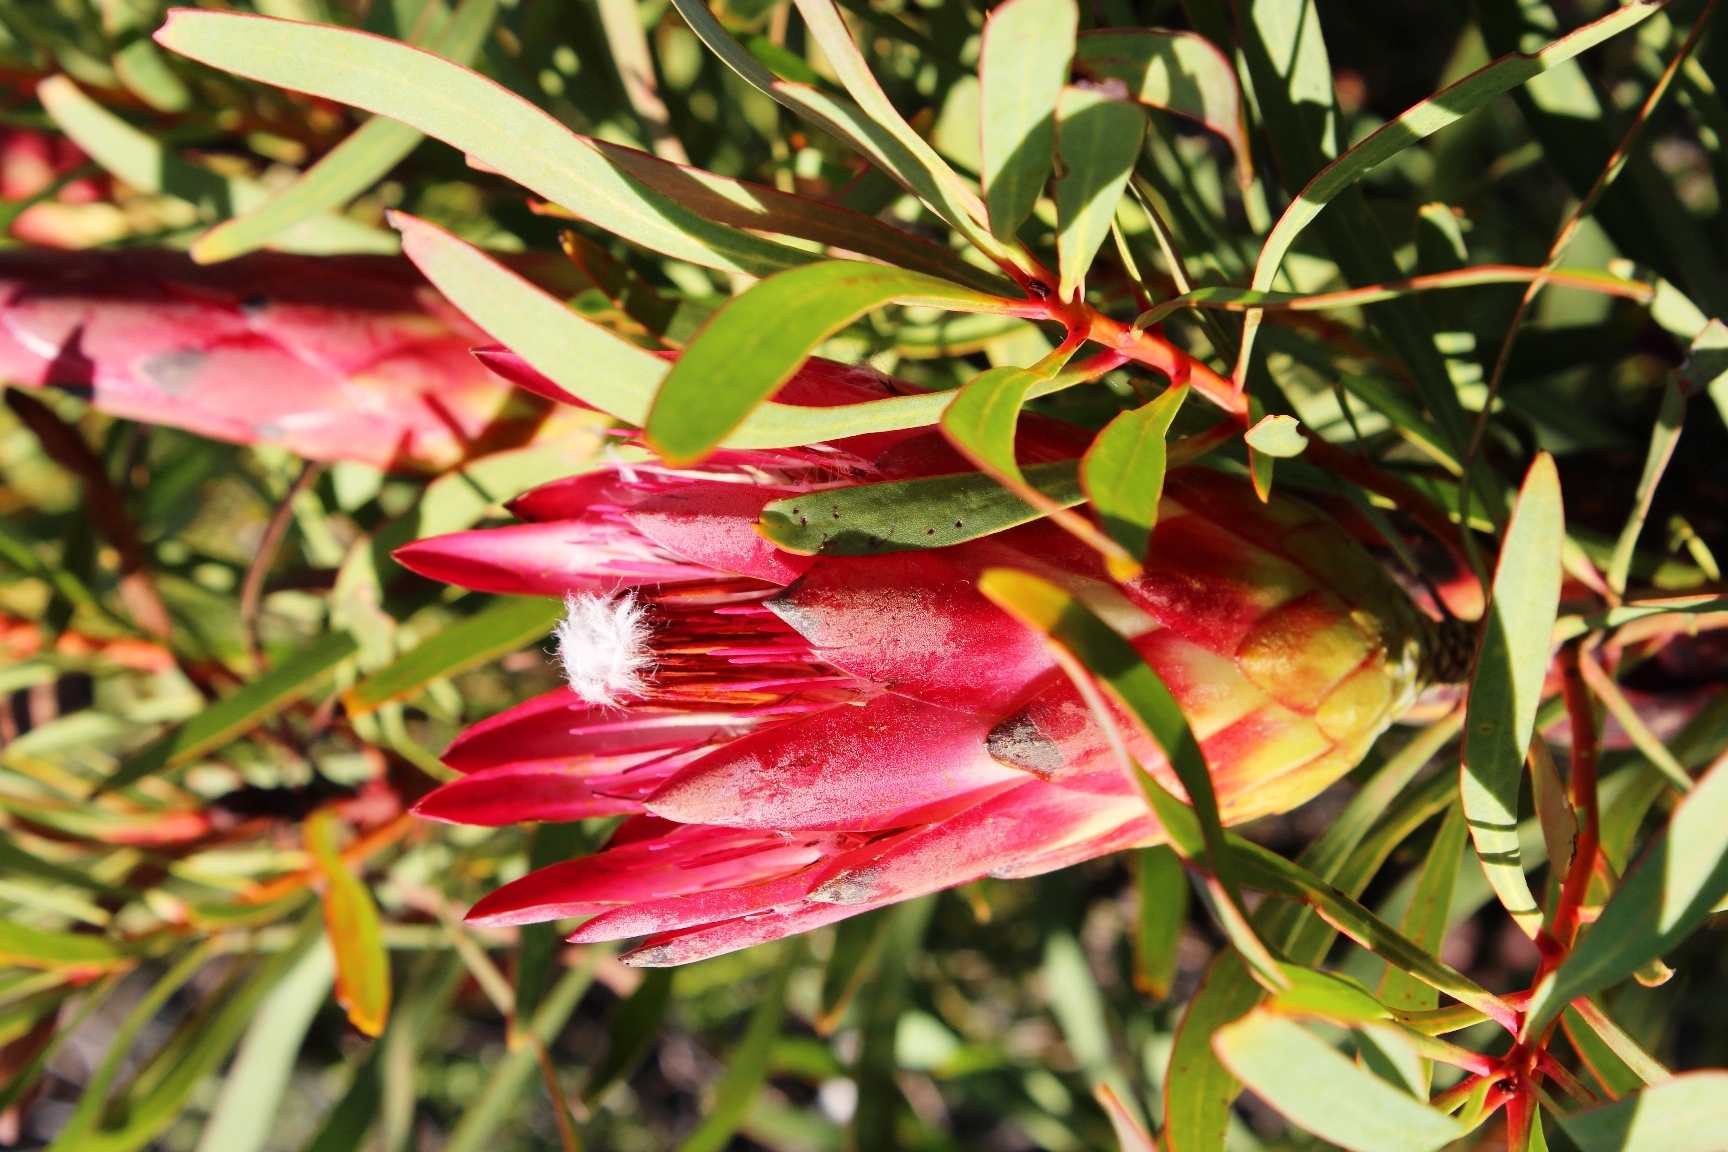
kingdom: Plantae
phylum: Tracheophyta
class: Magnoliopsida
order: Proteales
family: Proteaceae
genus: Protea
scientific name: Protea repens
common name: Sugarbush
